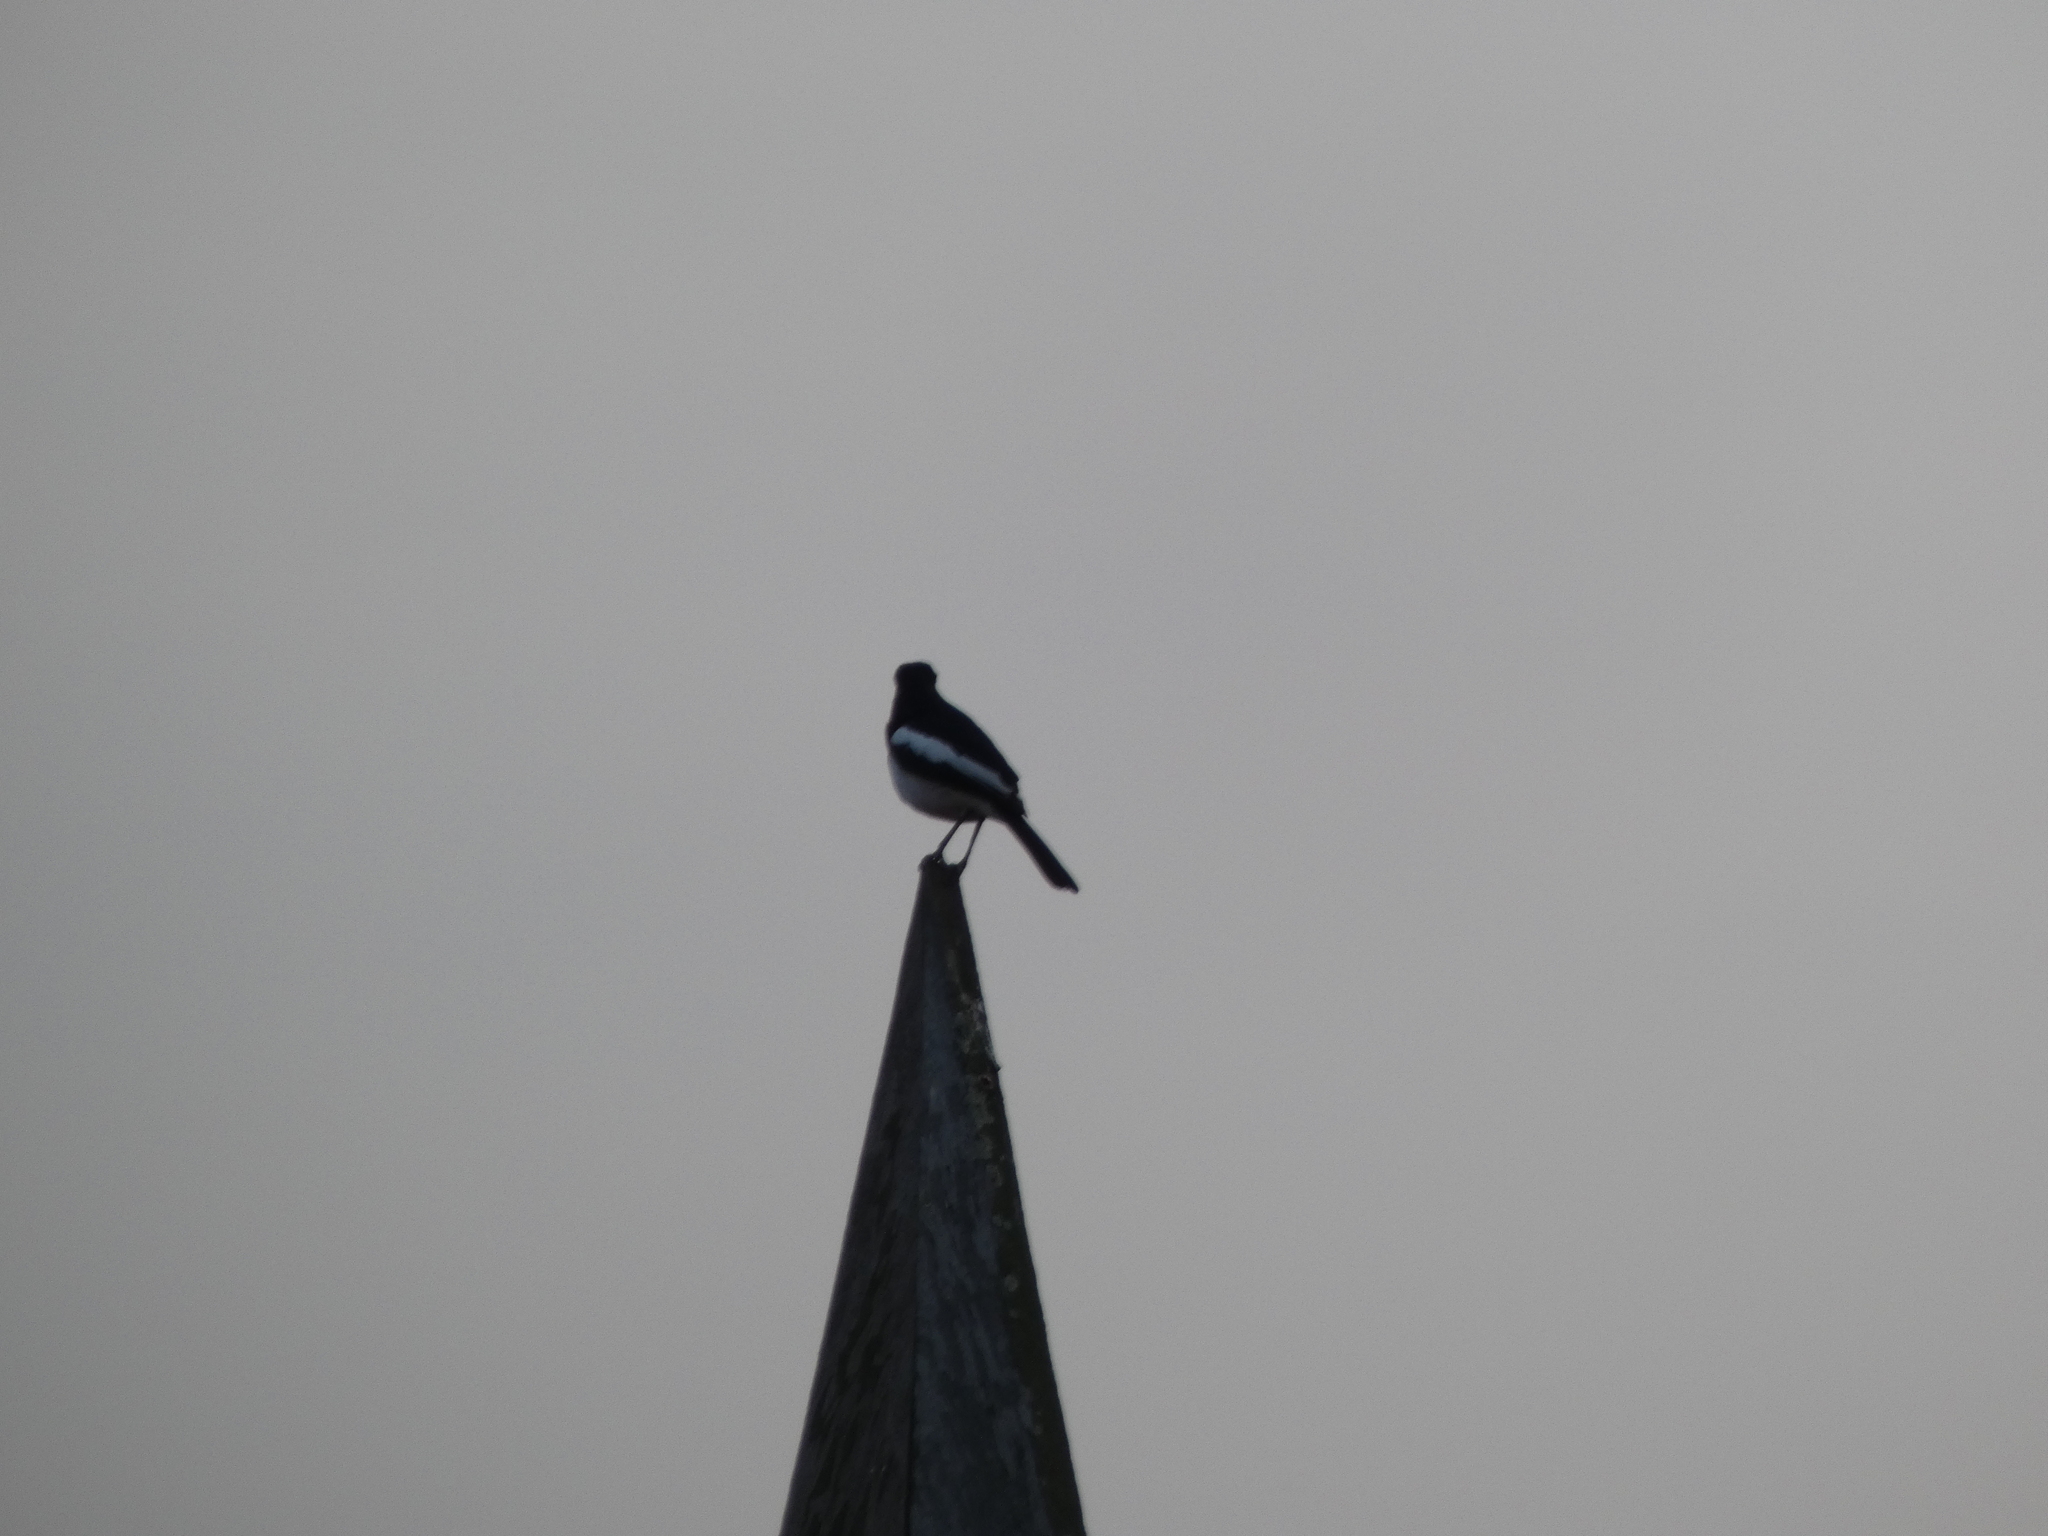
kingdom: Animalia
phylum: Chordata
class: Aves
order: Passeriformes
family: Muscicapidae
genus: Copsychus
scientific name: Copsychus saularis
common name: Oriental magpie-robin
